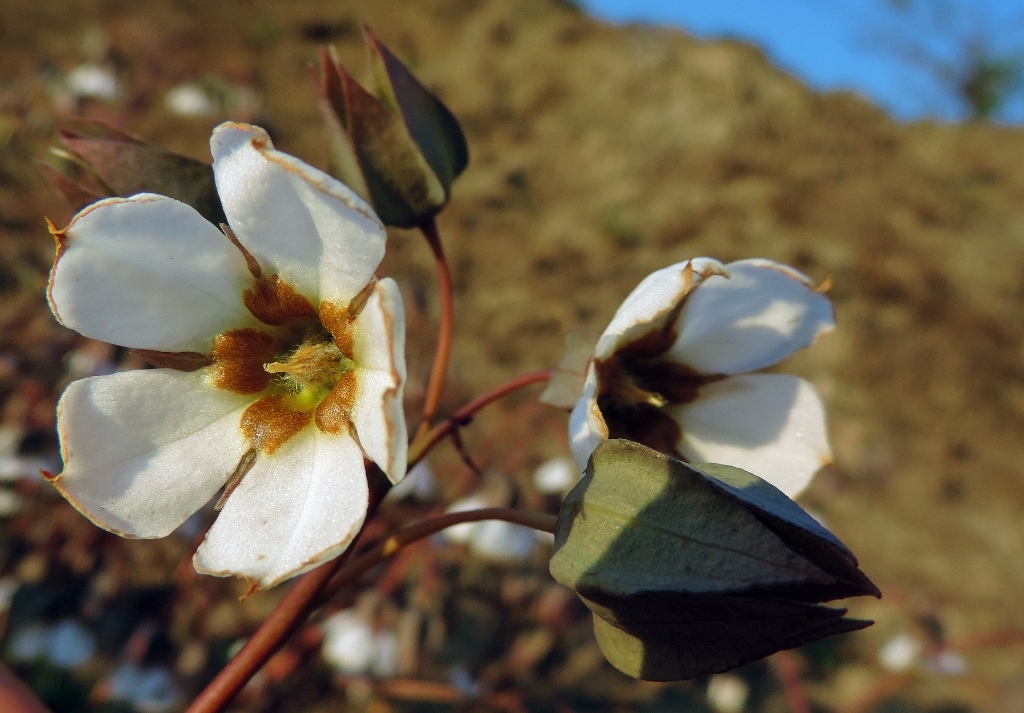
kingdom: Plantae
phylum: Tracheophyta
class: Magnoliopsida
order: Boraginales
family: Boraginaceae
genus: Trichodesma
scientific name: Trichodesma physaloides
